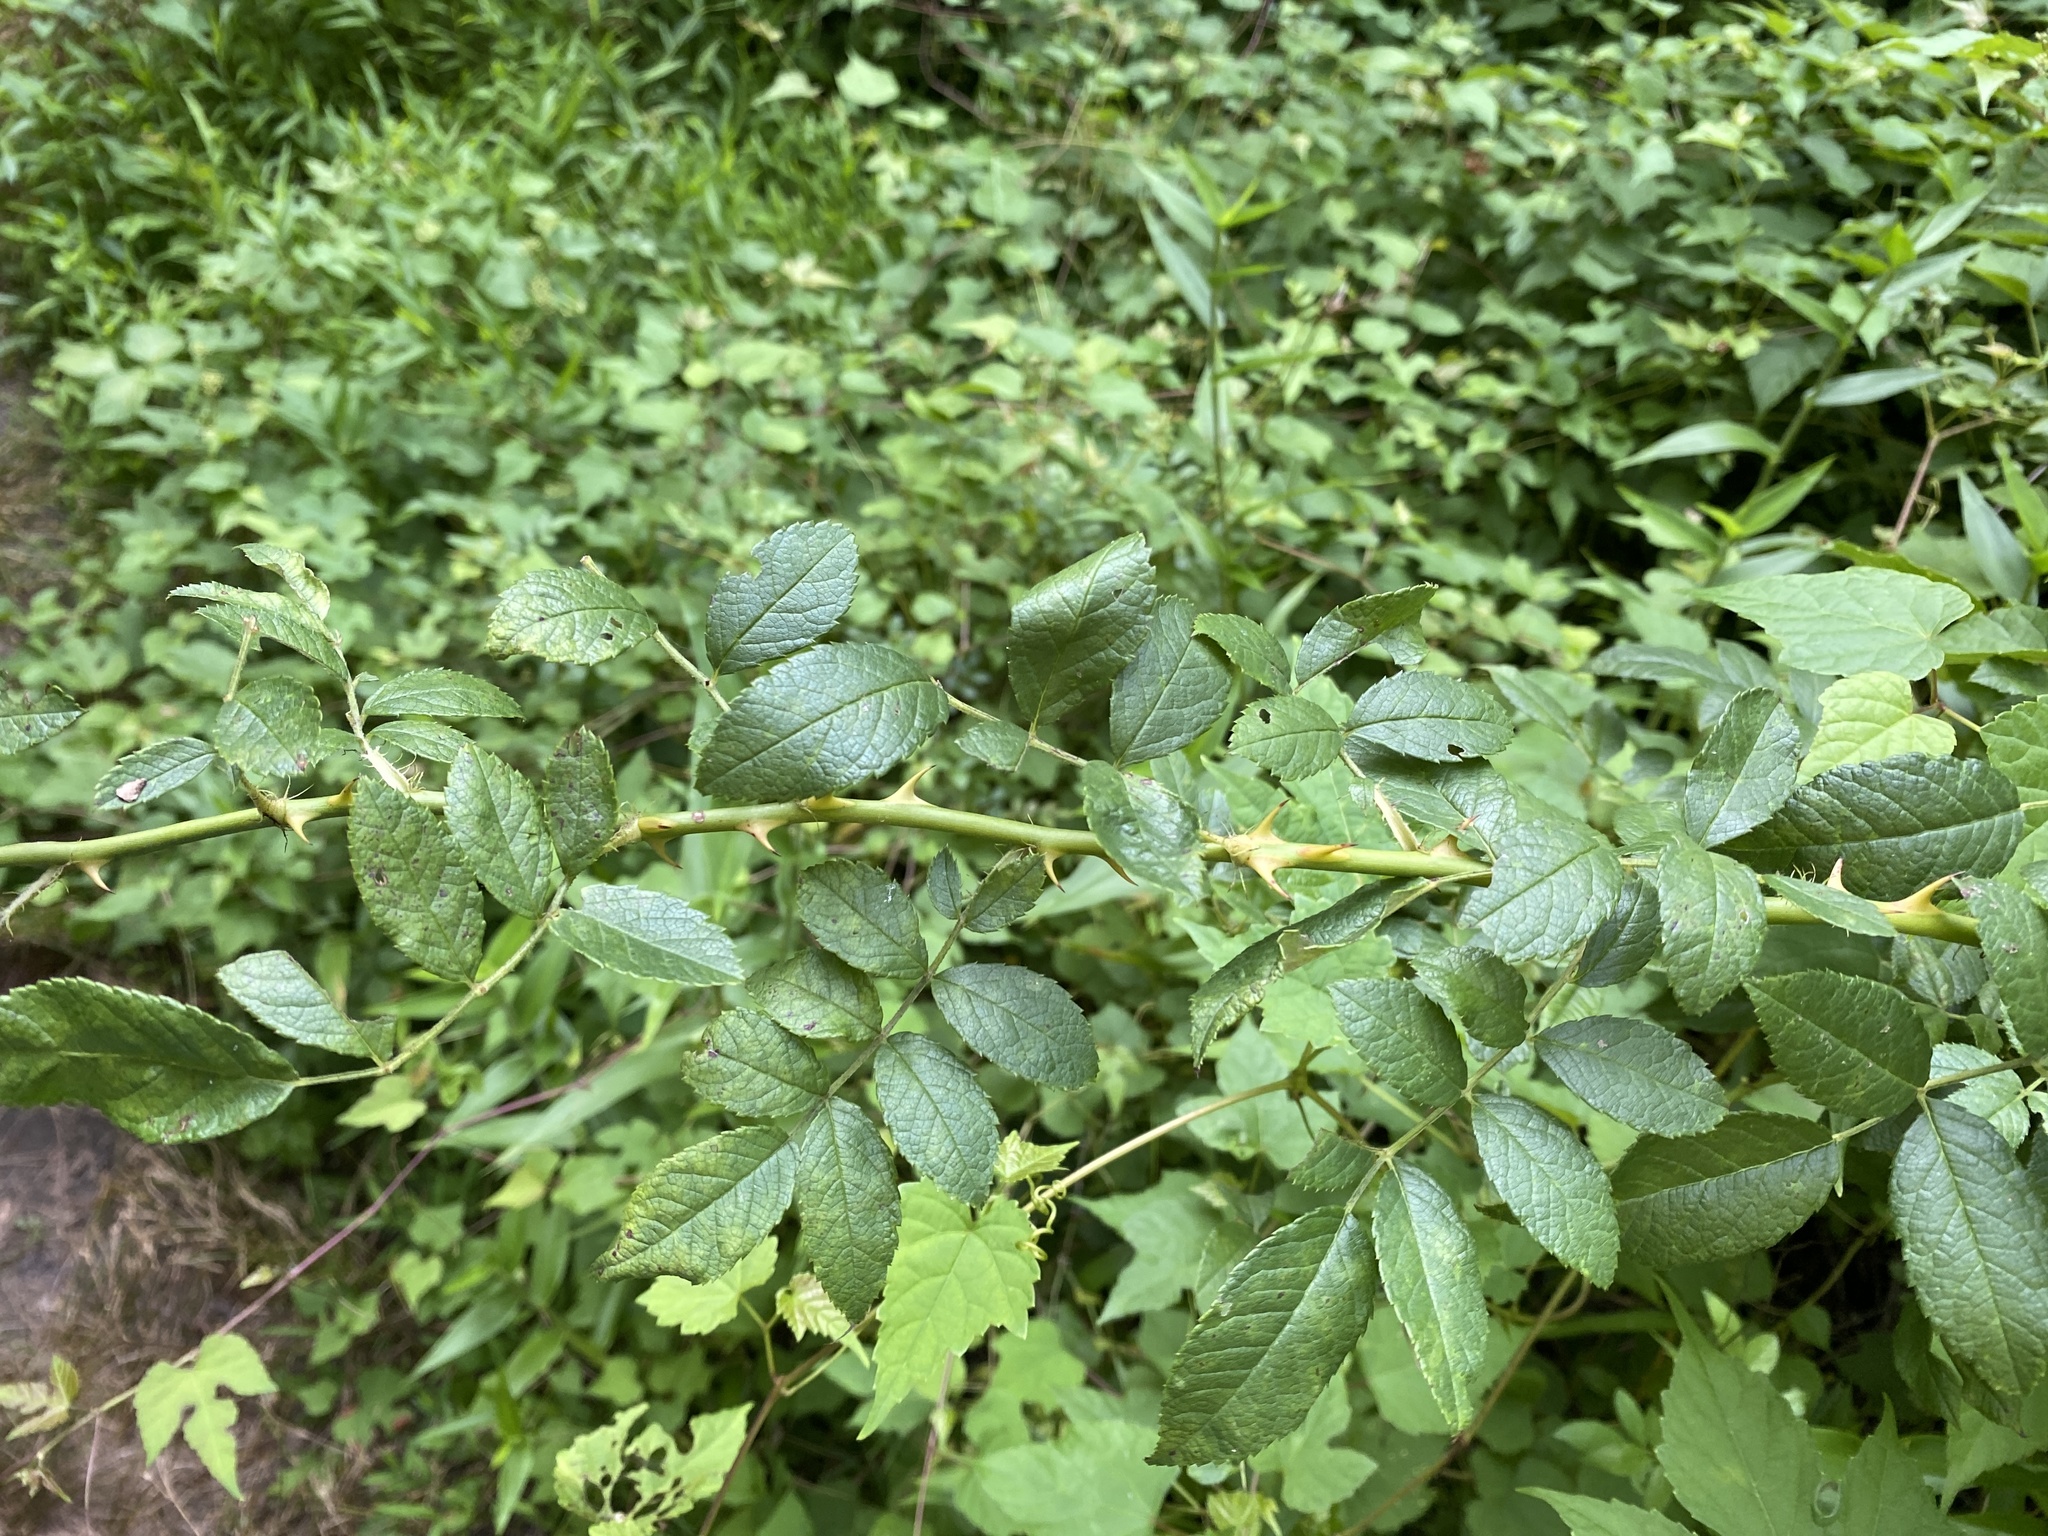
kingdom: Plantae
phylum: Tracheophyta
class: Magnoliopsida
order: Rosales
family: Rosaceae
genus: Rosa
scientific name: Rosa multiflora
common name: Multiflora rose
